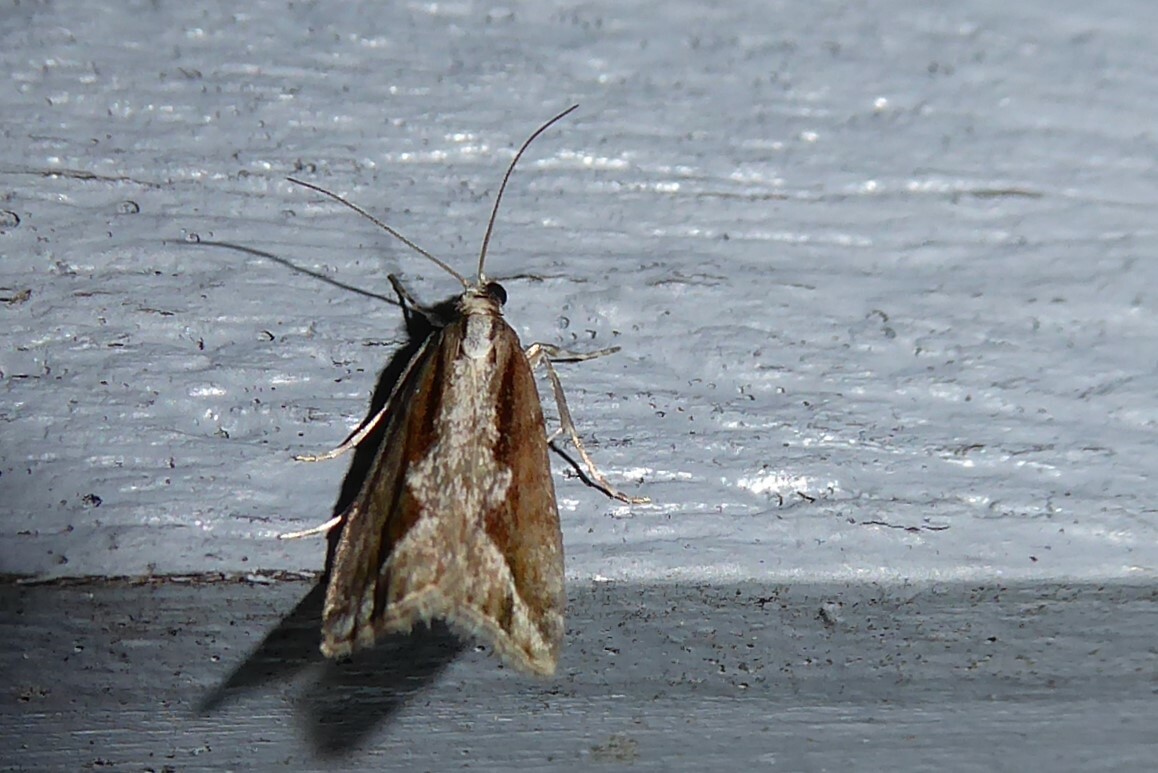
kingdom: Animalia
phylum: Arthropoda
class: Insecta
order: Lepidoptera
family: Crambidae
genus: Eudonia
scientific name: Eudonia steropaea
